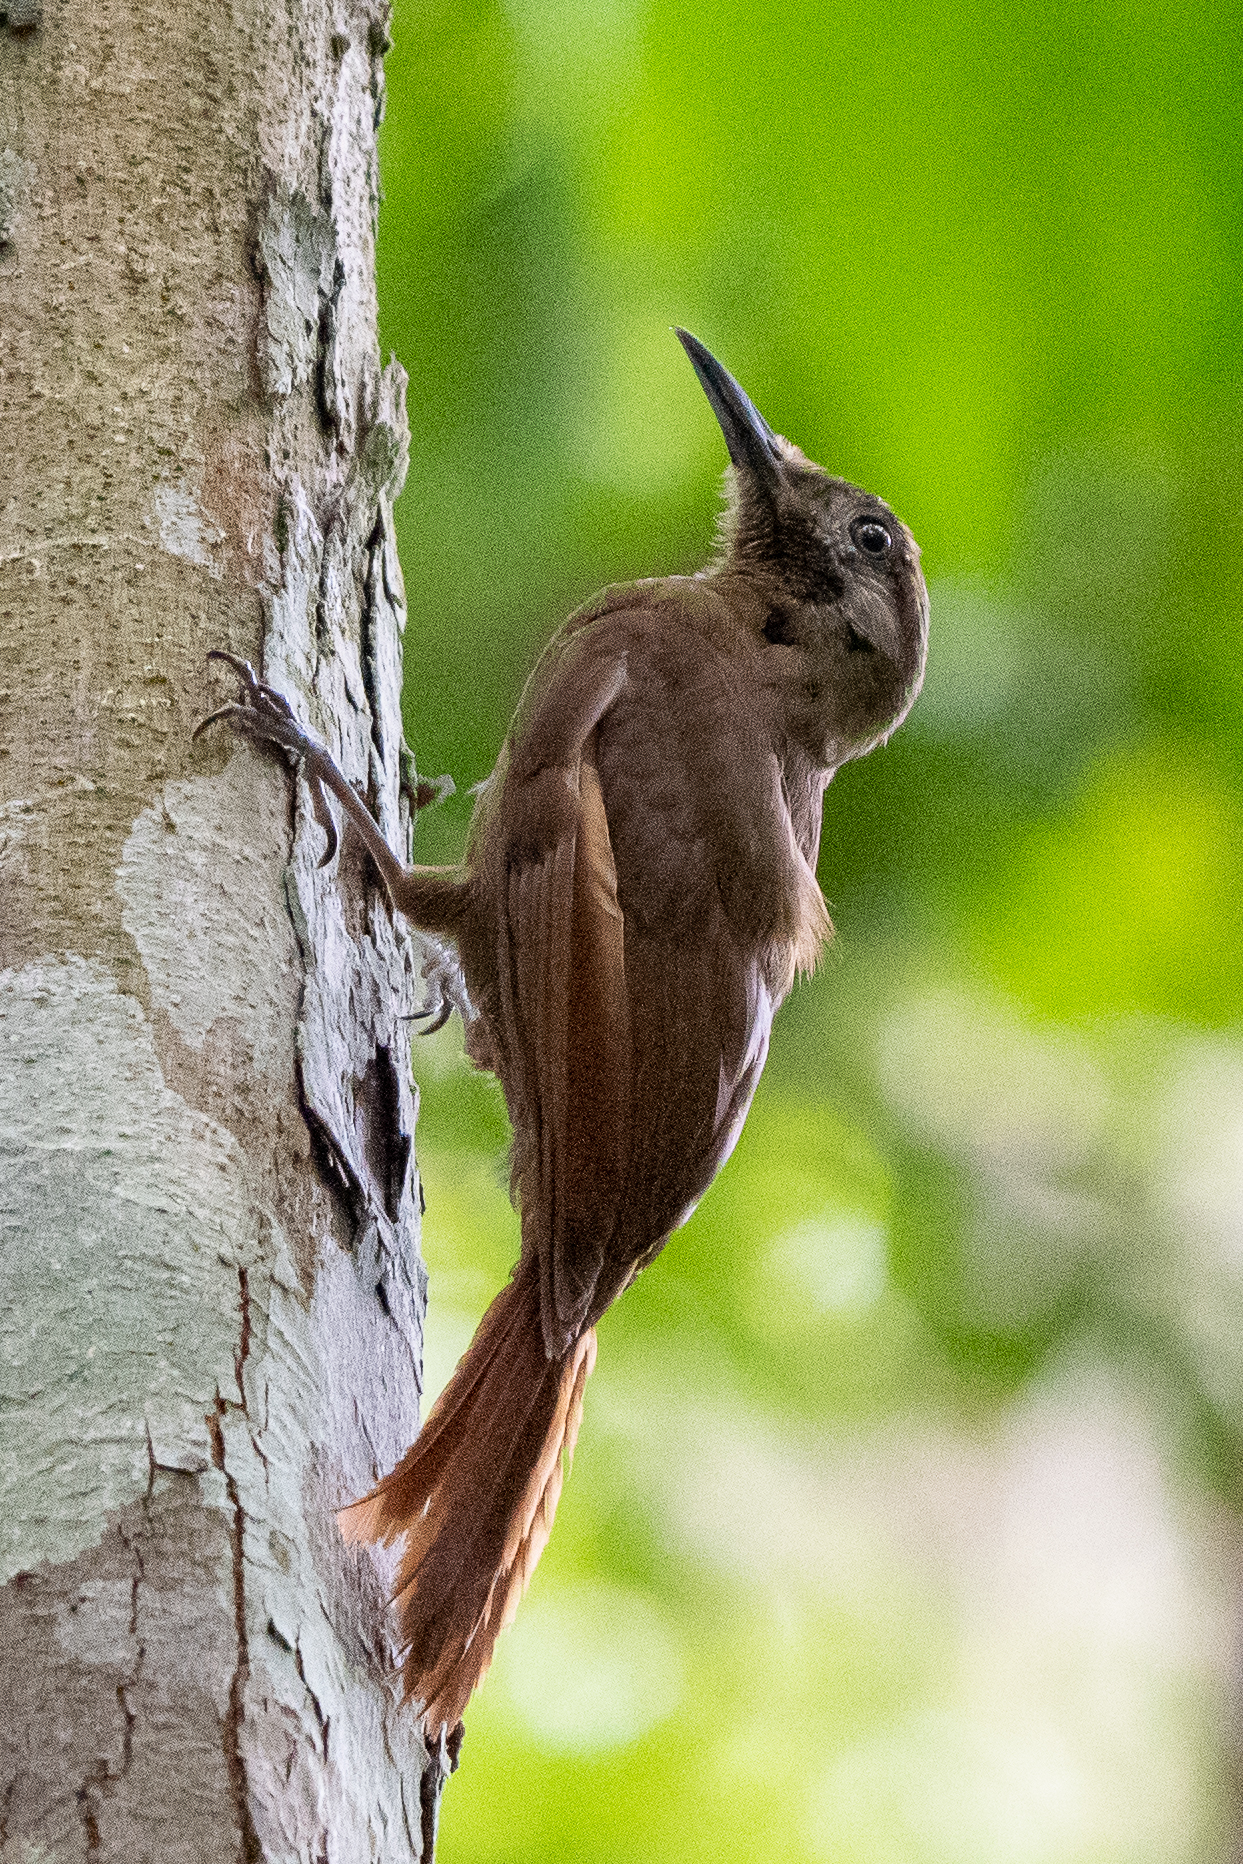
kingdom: Animalia
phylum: Chordata
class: Aves
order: Passeriformes
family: Furnariidae
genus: Dendrocincla
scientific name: Dendrocincla fuliginosa
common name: Plain-brown woodcreeper
